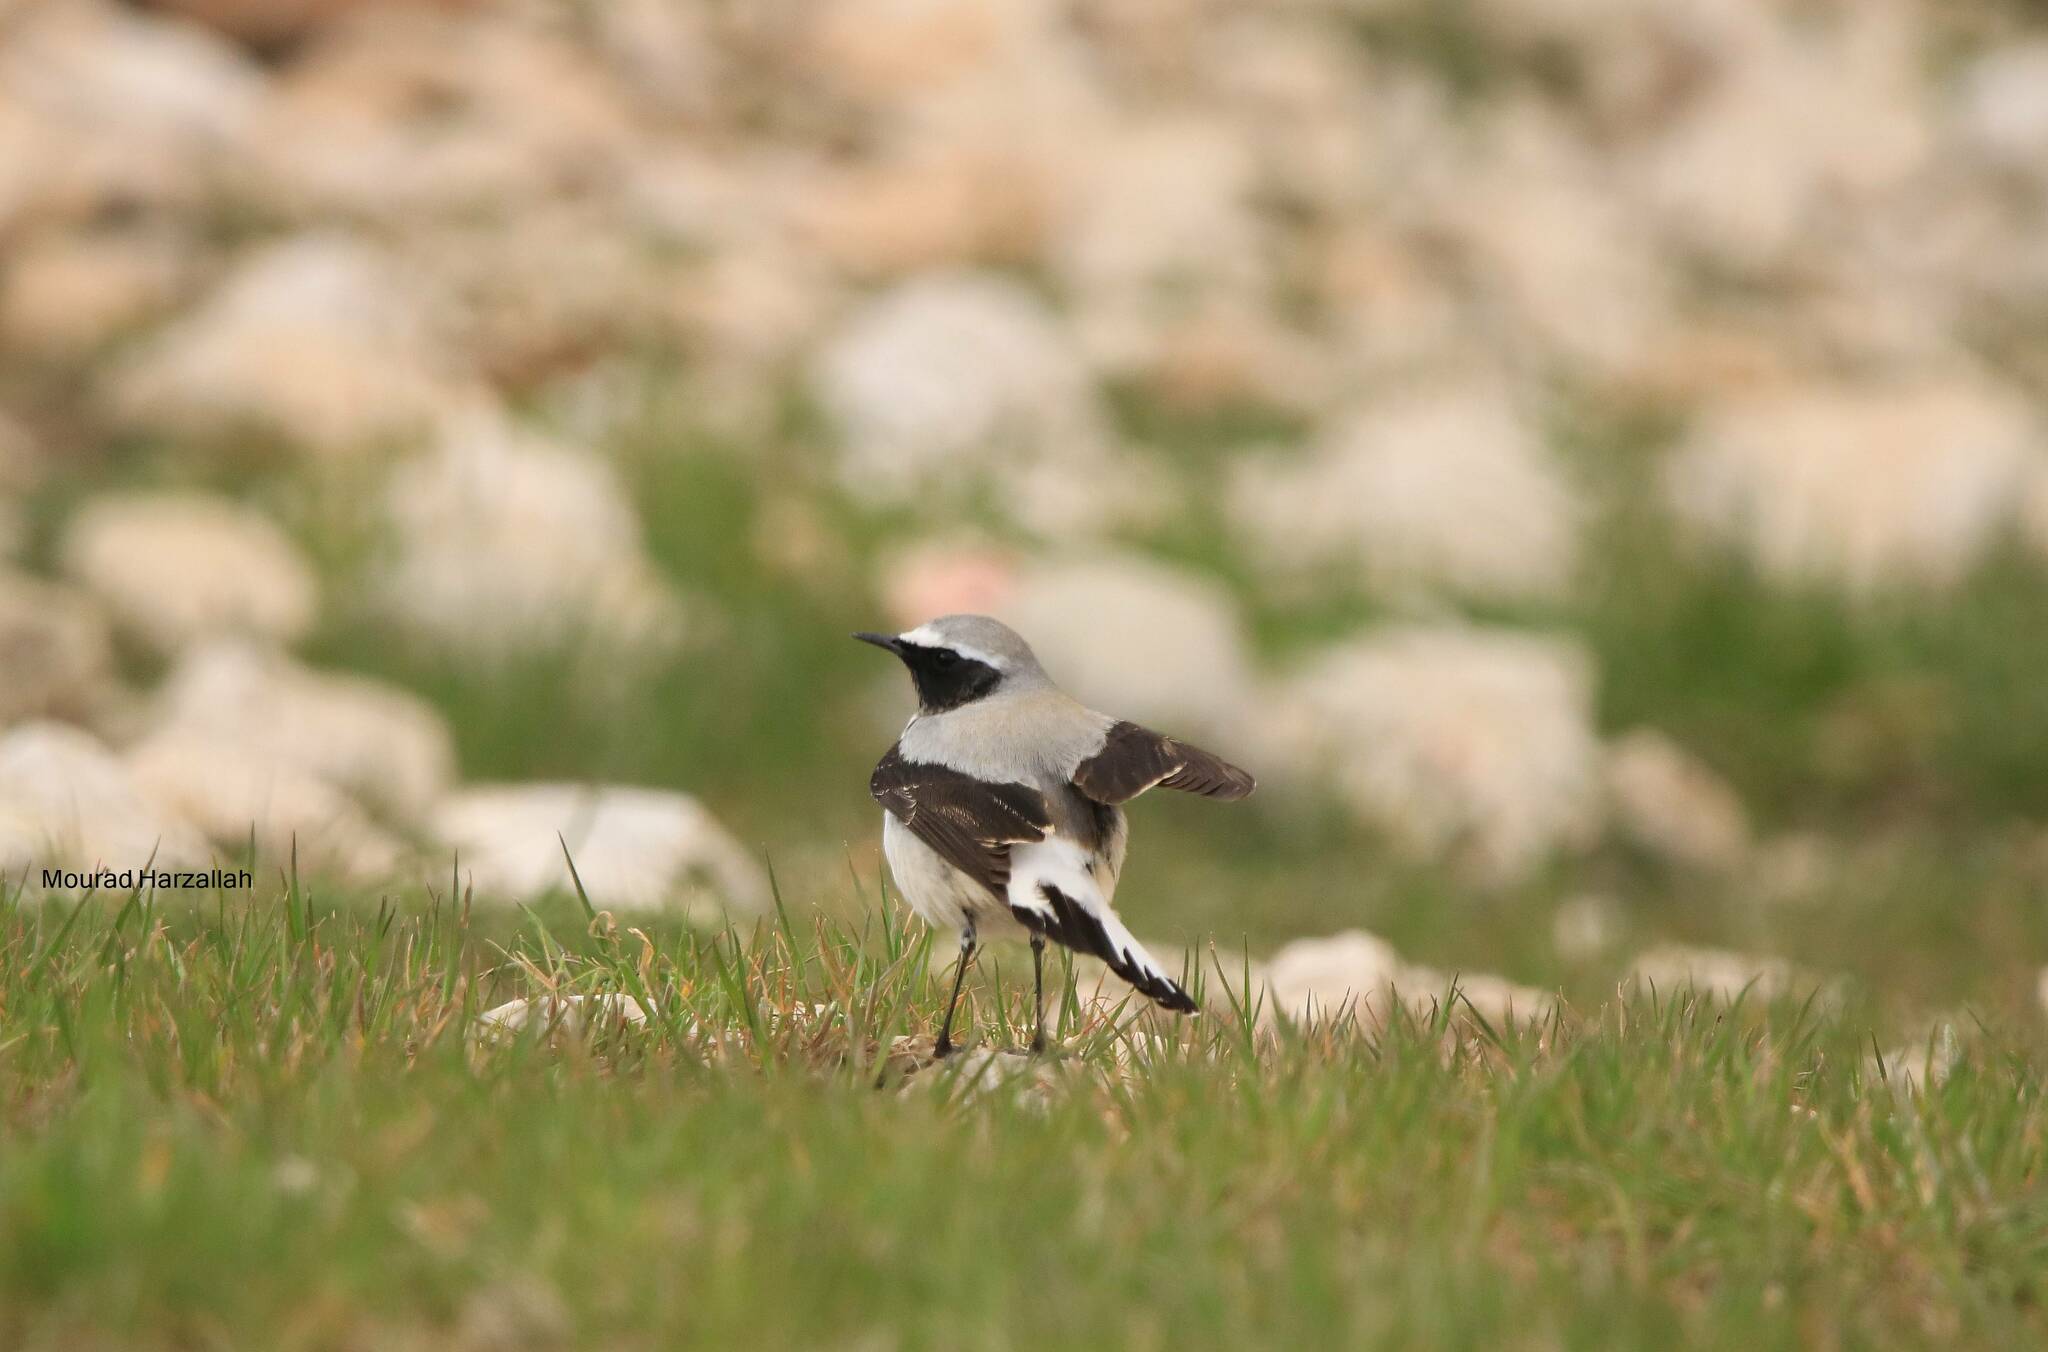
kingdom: Animalia
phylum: Chordata
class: Aves
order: Passeriformes
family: Muscicapidae
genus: Oenanthe
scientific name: Oenanthe oenanthe
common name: Northern wheatear
